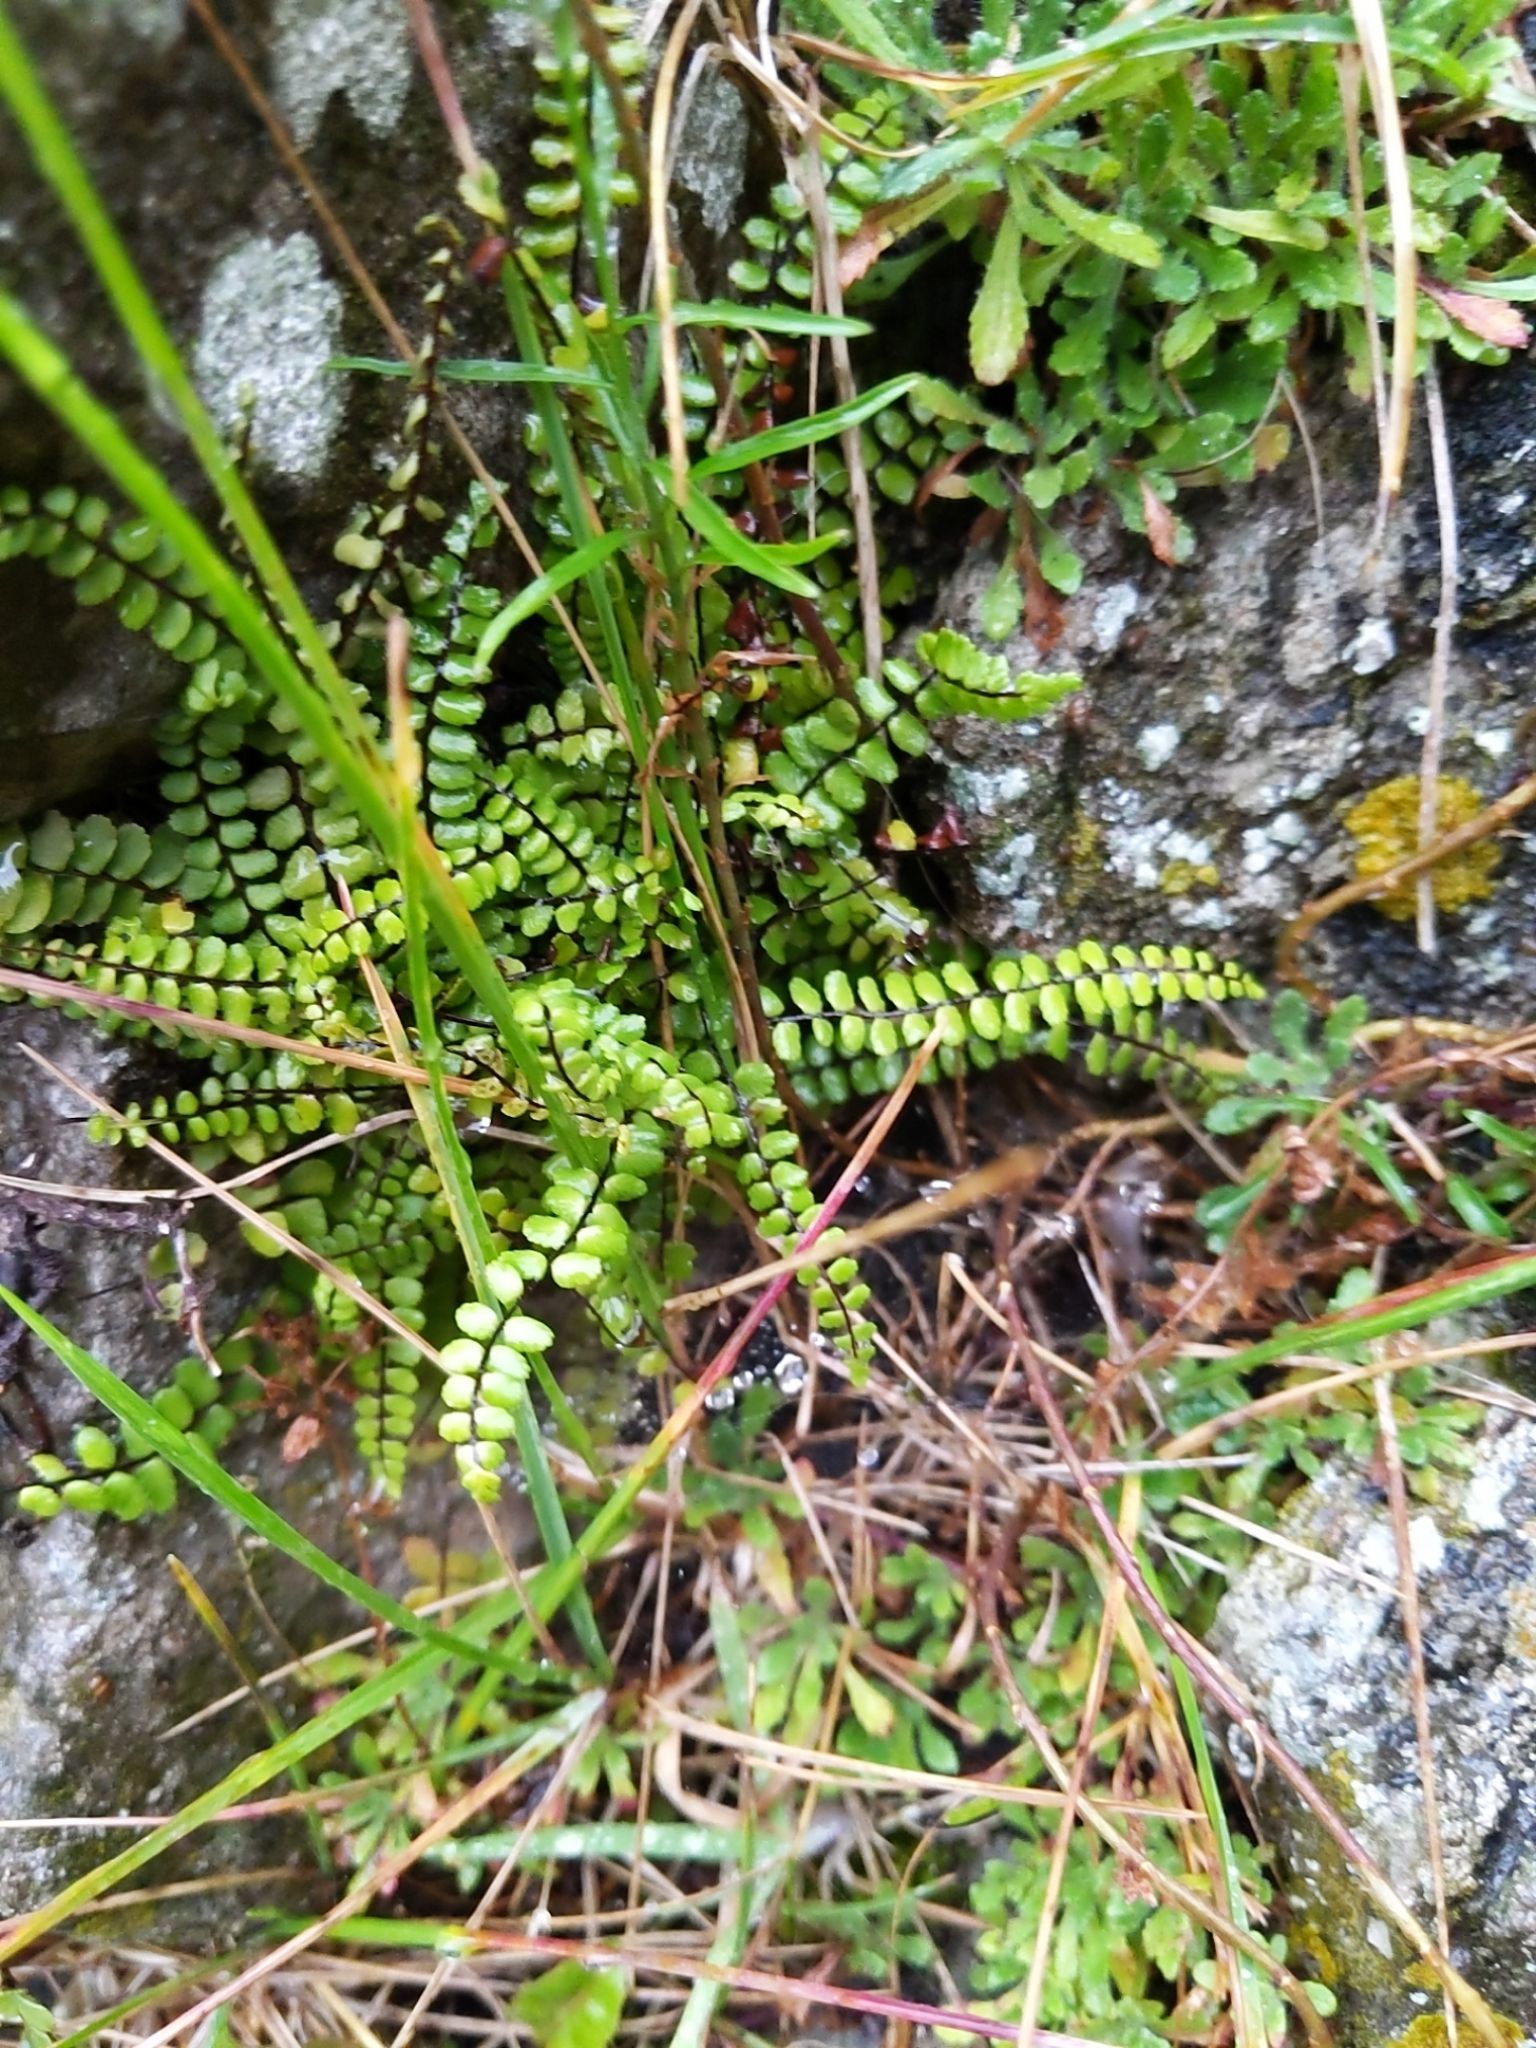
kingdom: Plantae
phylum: Tracheophyta
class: Polypodiopsida
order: Polypodiales
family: Aspleniaceae
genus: Asplenium
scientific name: Asplenium trichomanes
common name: Maidenhair spleenwort
